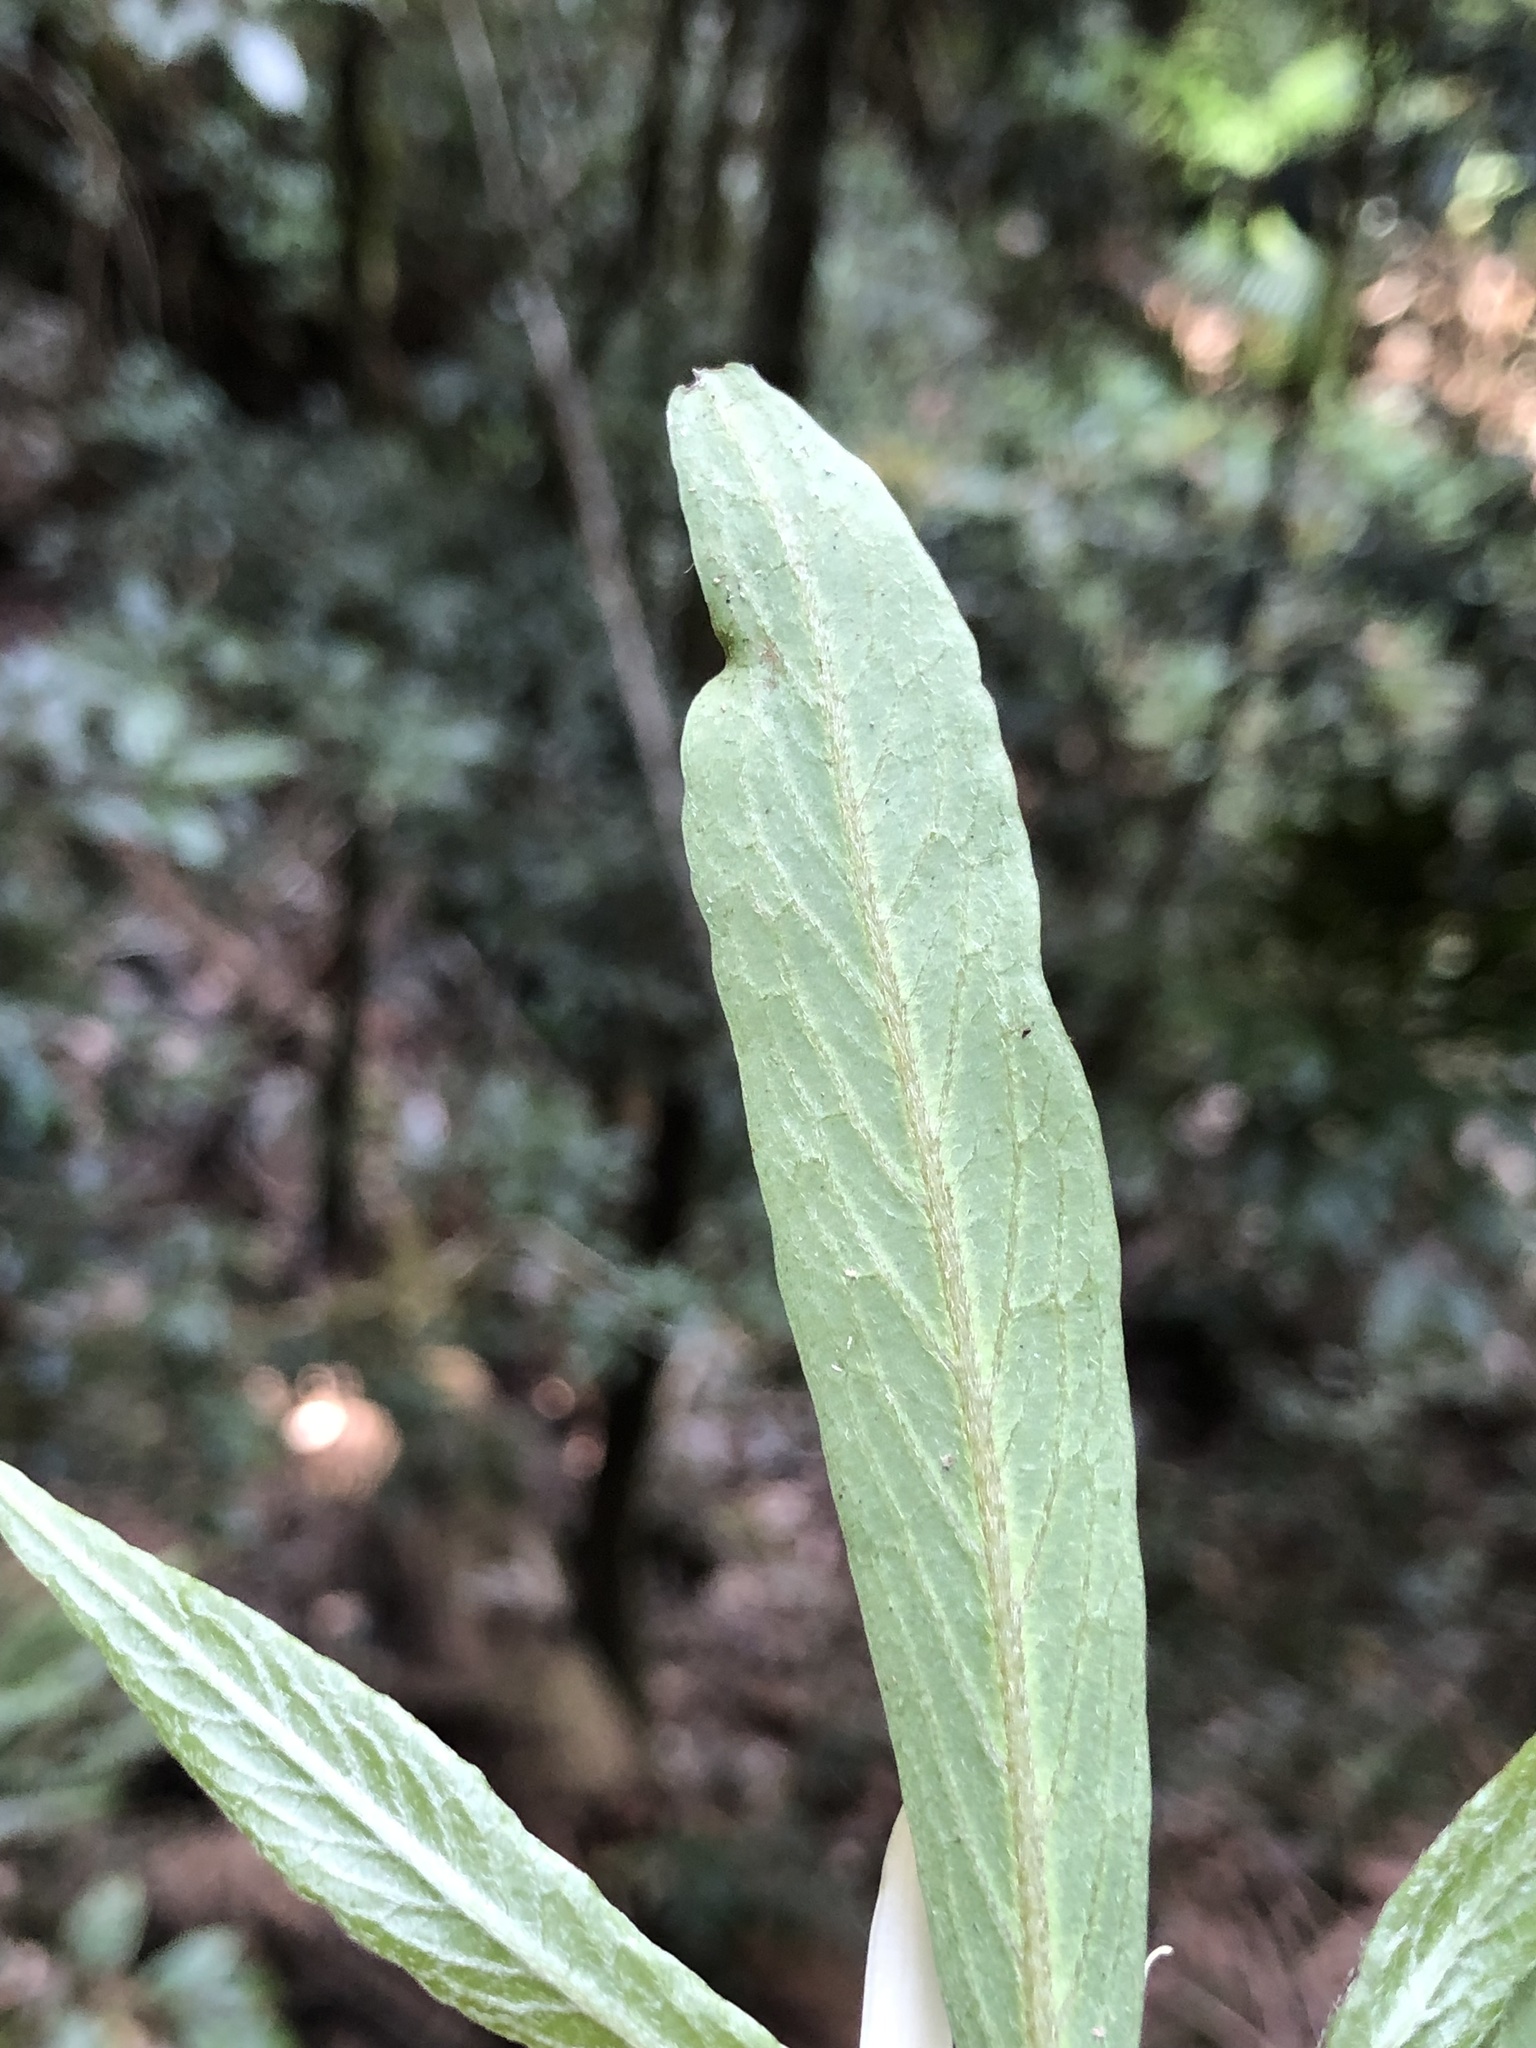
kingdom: Plantae
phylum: Tracheophyta
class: Magnoliopsida
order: Gentianales
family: Rubiaceae
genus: Atractocarpus
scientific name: Atractocarpus chartaceus
